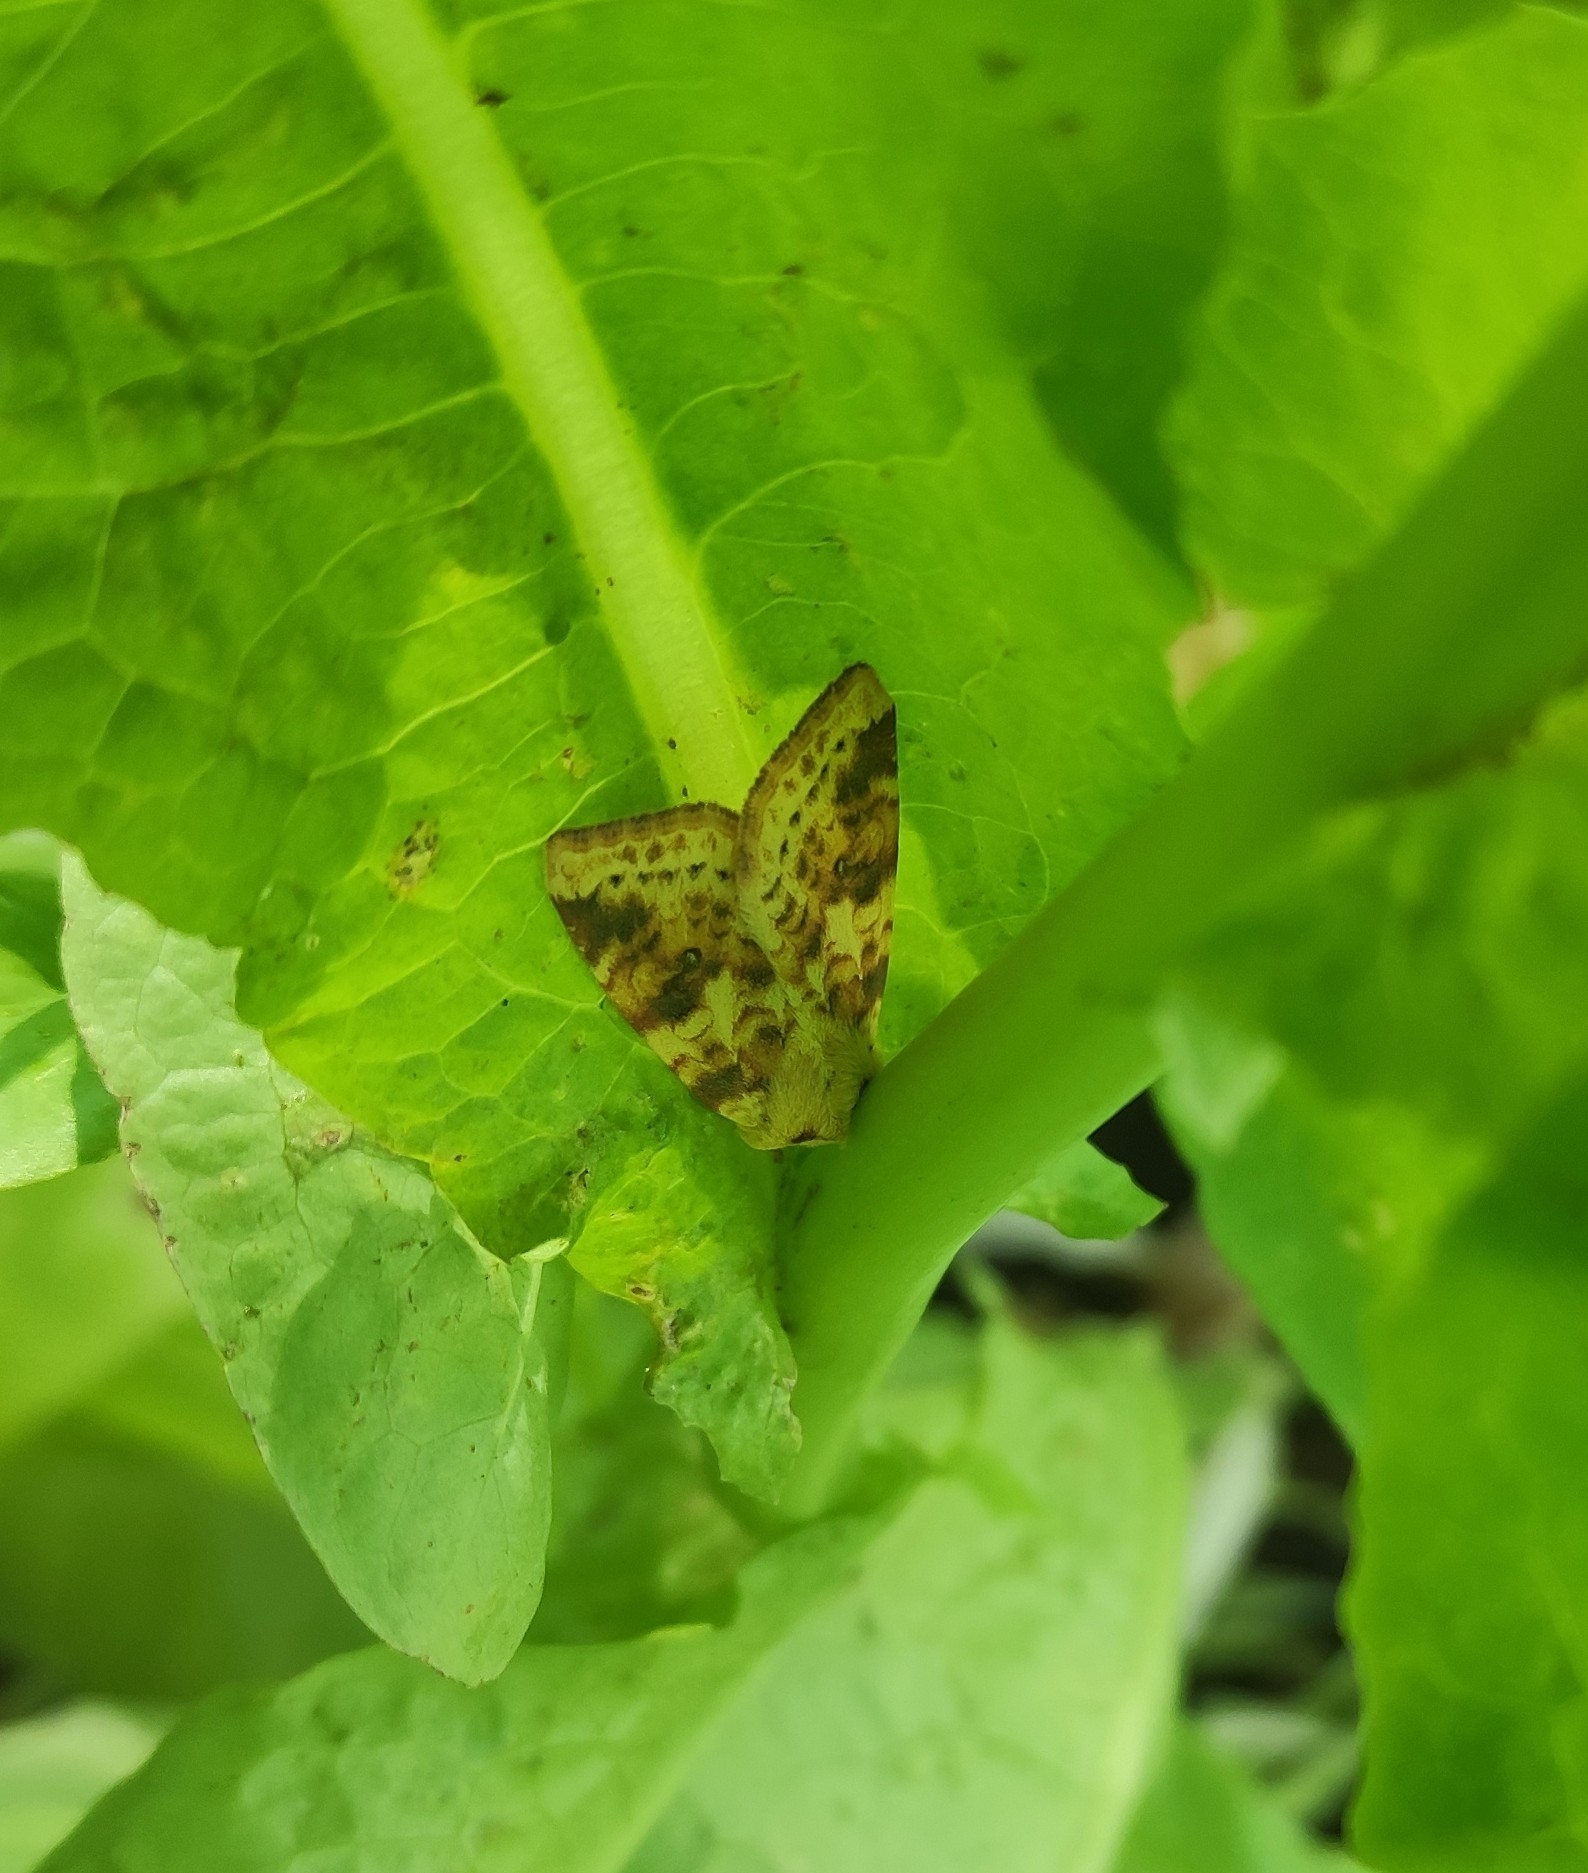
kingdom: Animalia
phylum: Arthropoda
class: Insecta
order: Lepidoptera
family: Noctuidae
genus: Xanthia
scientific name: Xanthia icteritia
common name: The sallow
